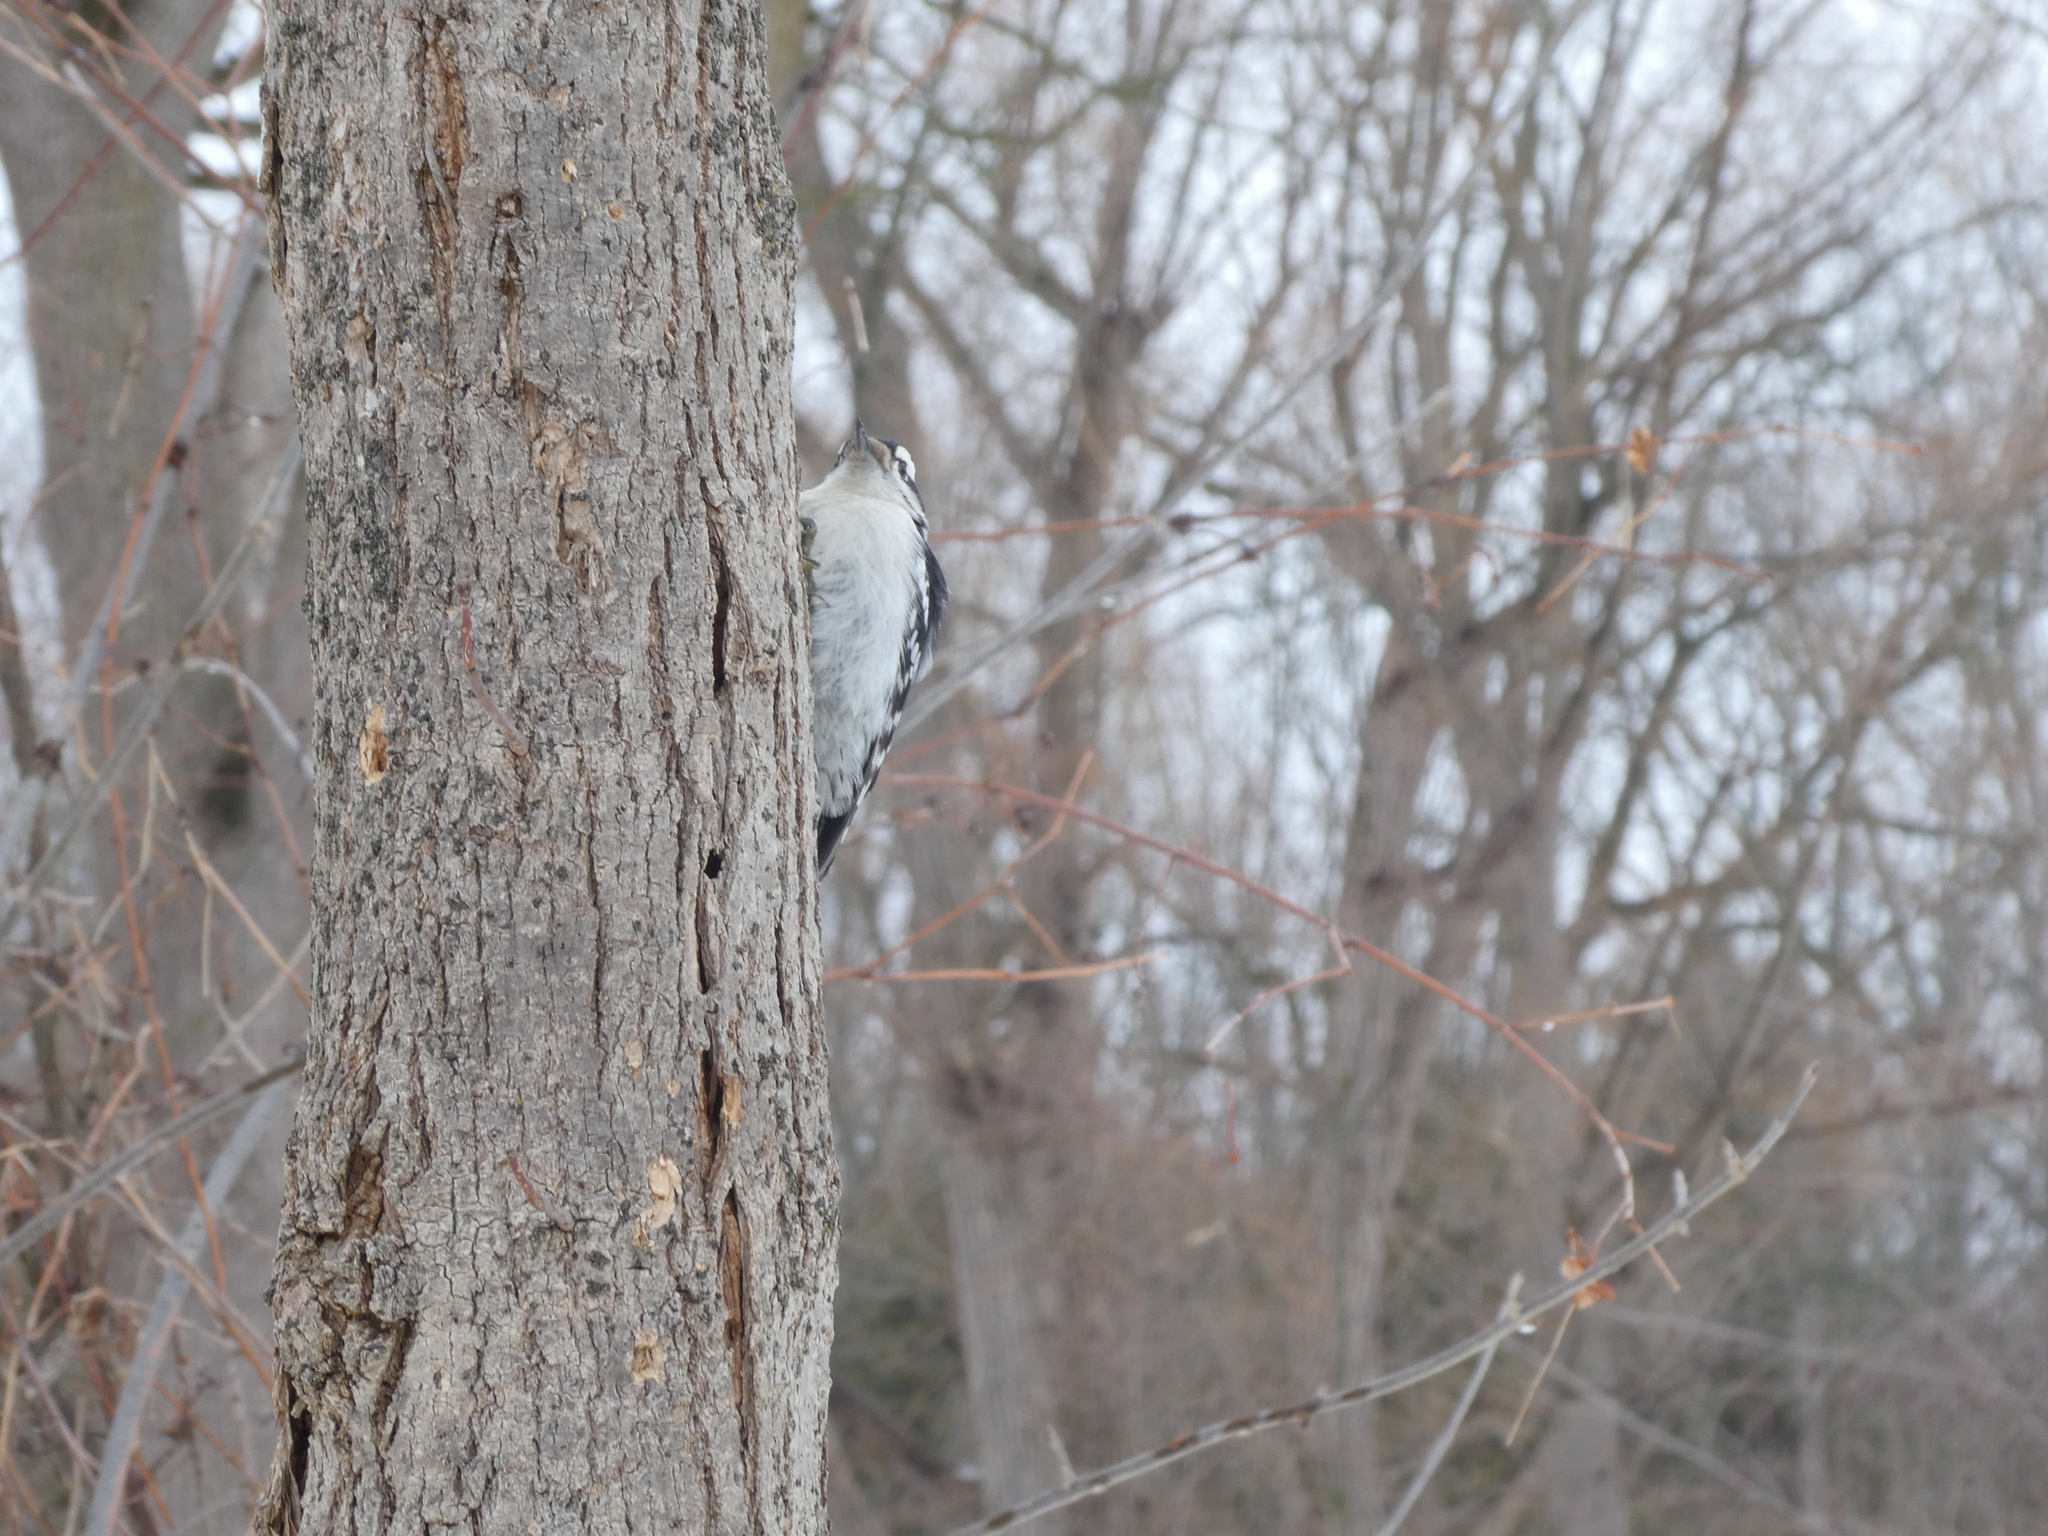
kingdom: Animalia
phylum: Chordata
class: Aves
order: Piciformes
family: Picidae
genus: Dryobates
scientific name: Dryobates pubescens
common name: Downy woodpecker
